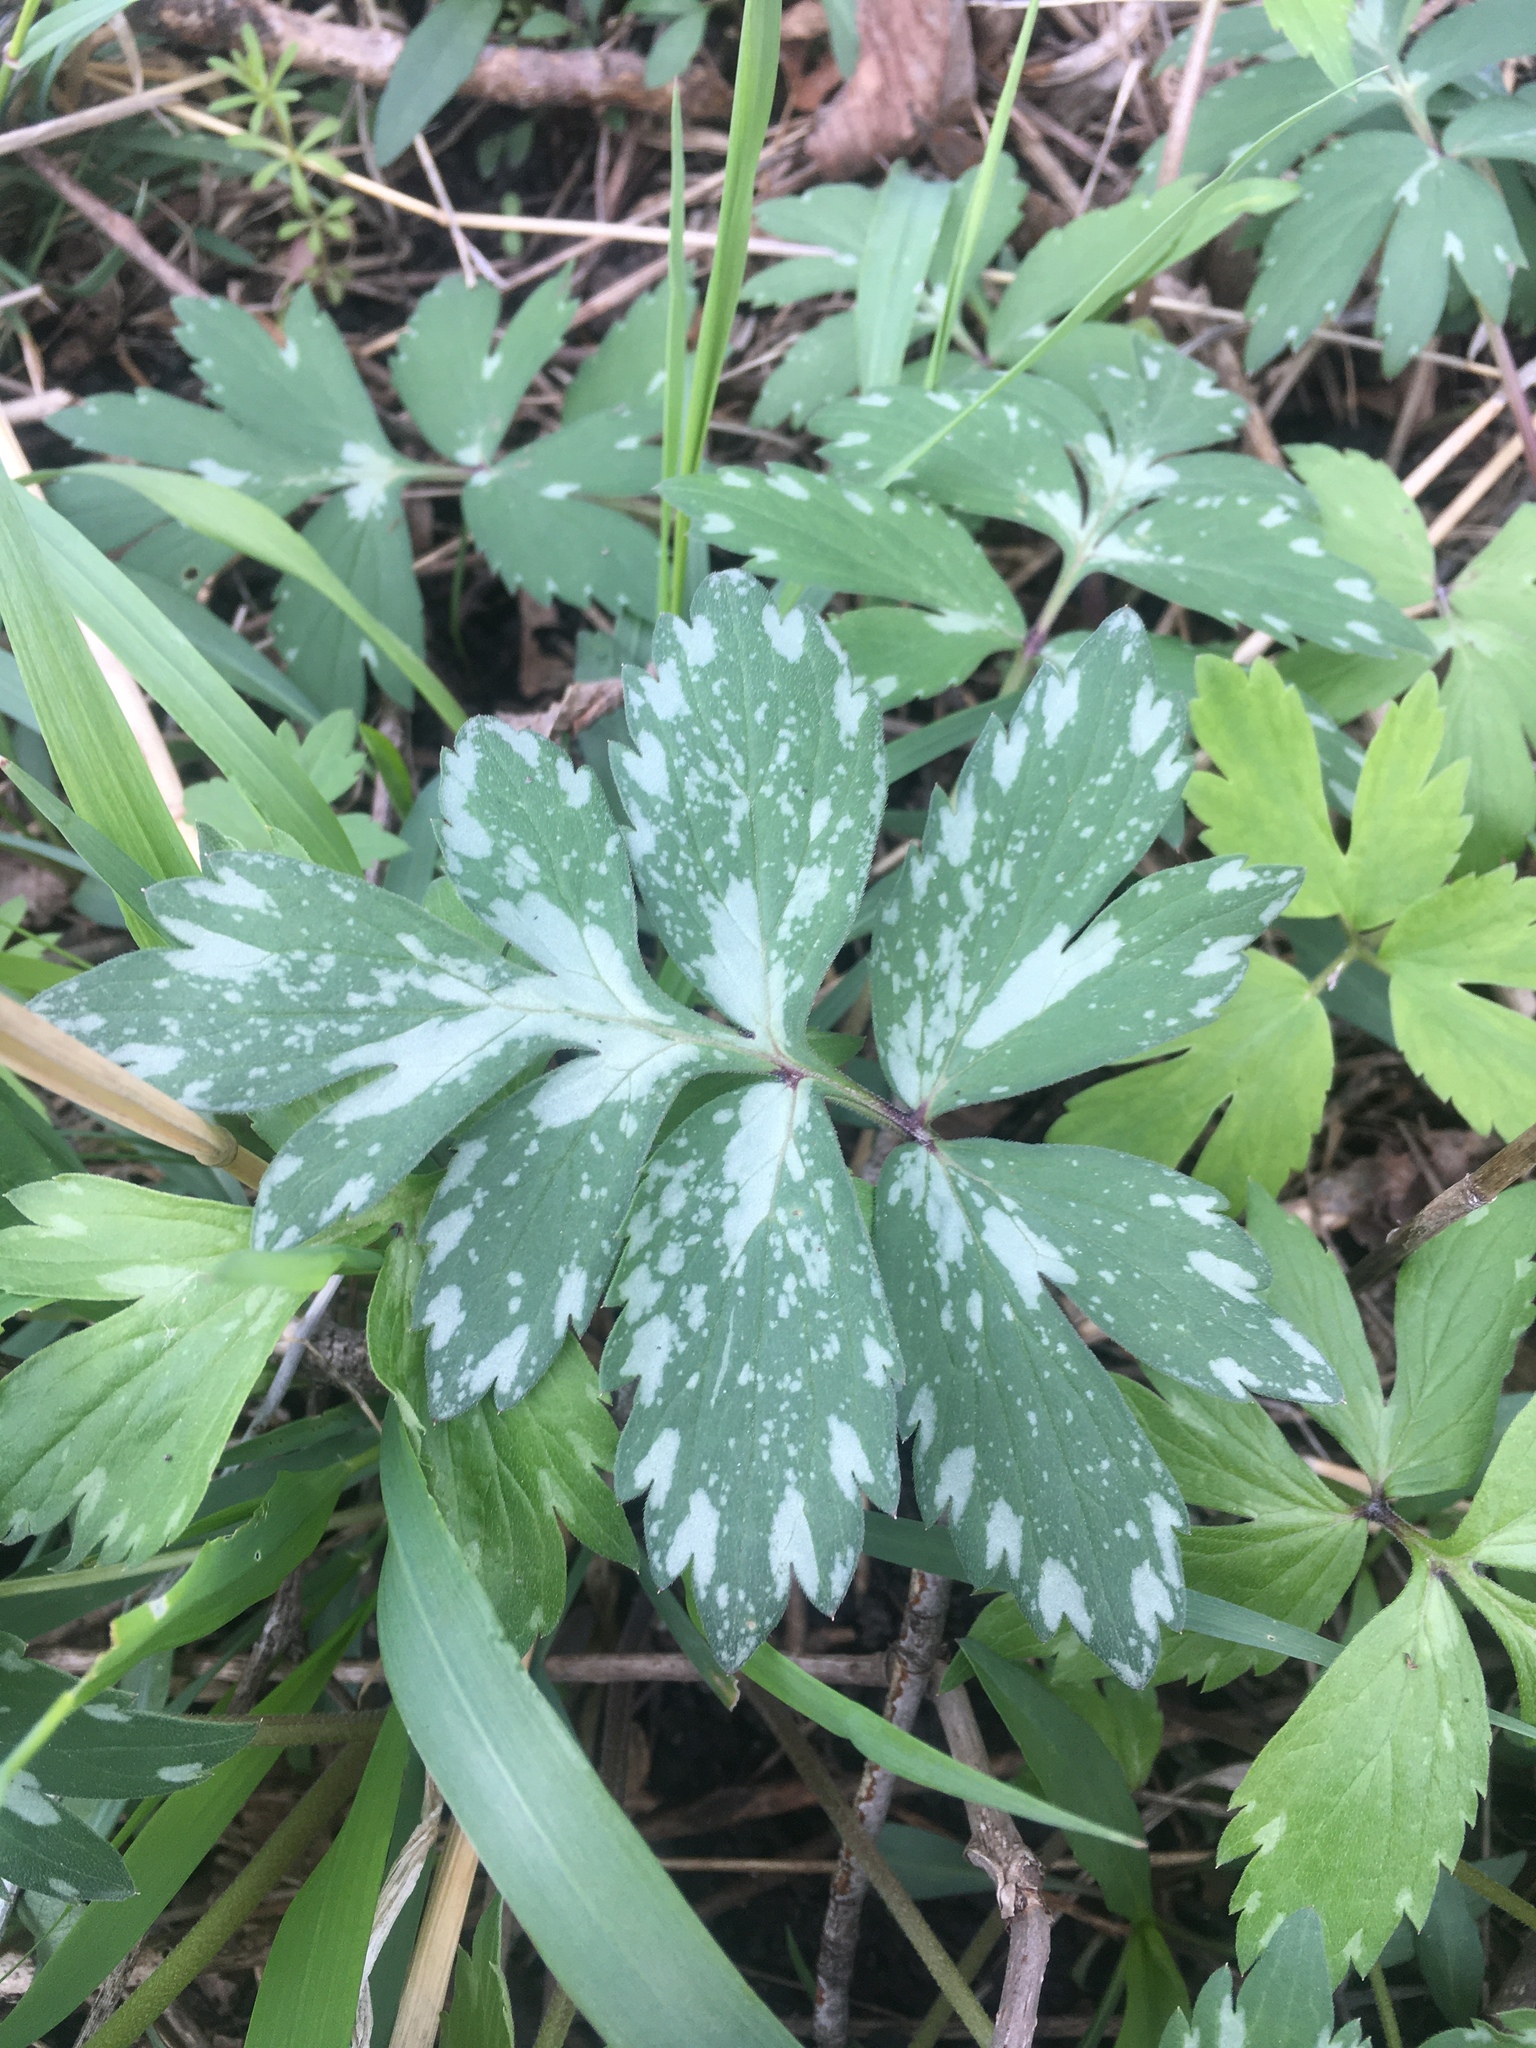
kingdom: Plantae
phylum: Tracheophyta
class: Magnoliopsida
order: Boraginales
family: Hydrophyllaceae
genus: Hydrophyllum
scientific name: Hydrophyllum virginianum
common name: Virginia waterleaf
